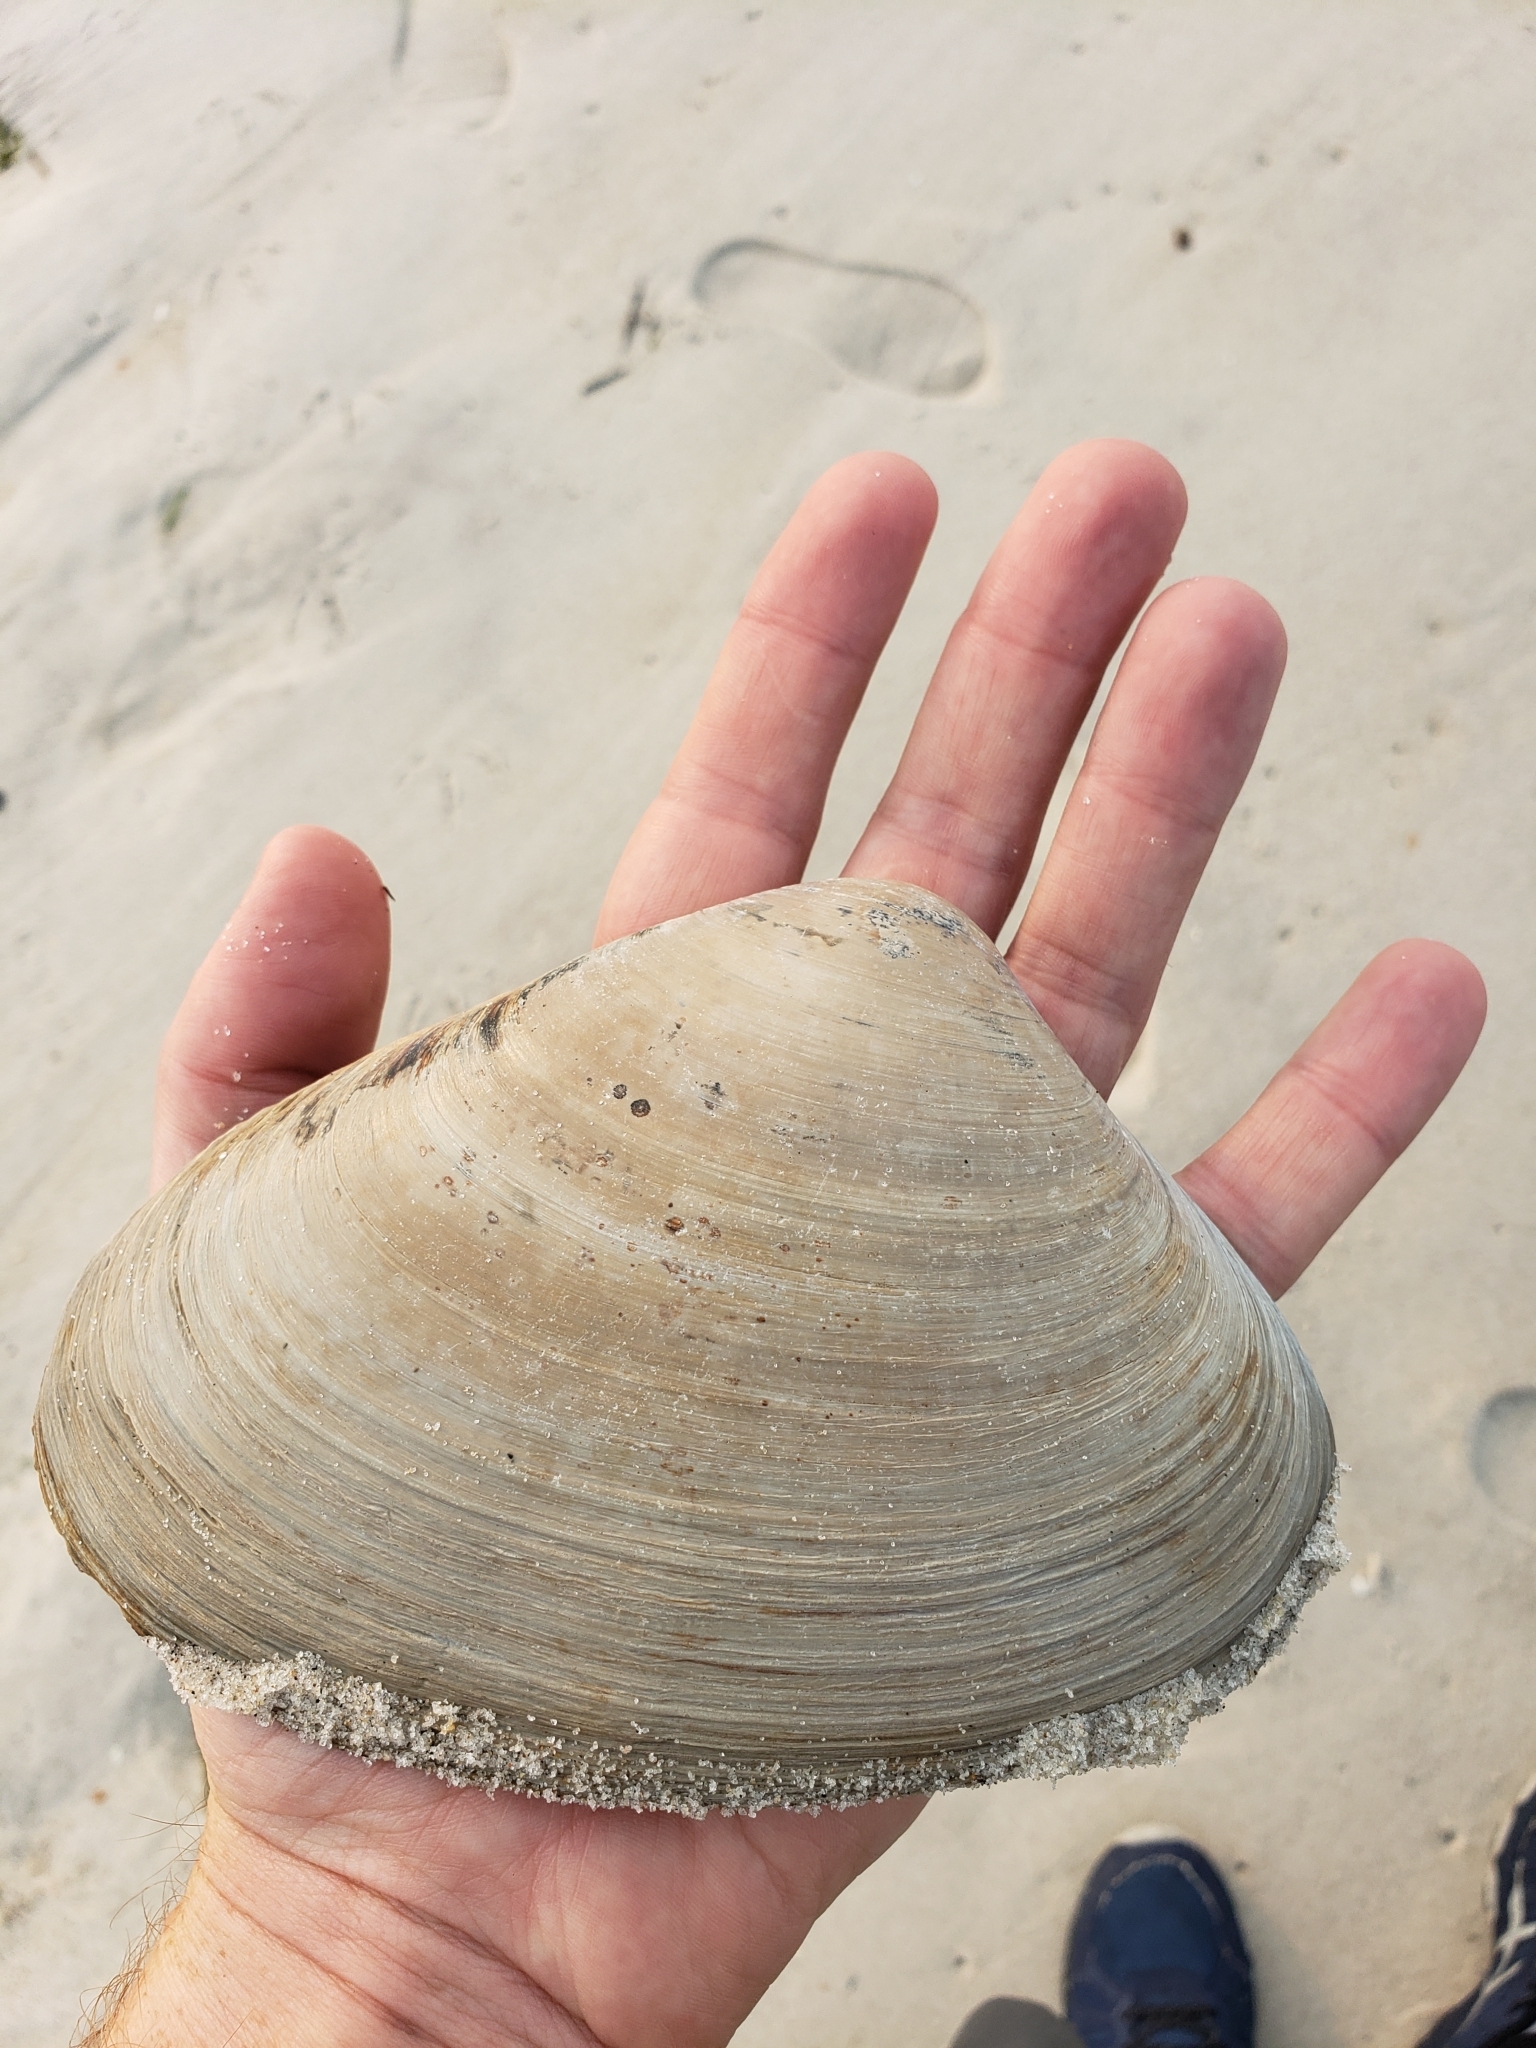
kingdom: Animalia
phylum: Mollusca
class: Bivalvia
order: Venerida
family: Mactridae
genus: Spisula
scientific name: Spisula solidissima
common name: Atlantic surf clam
